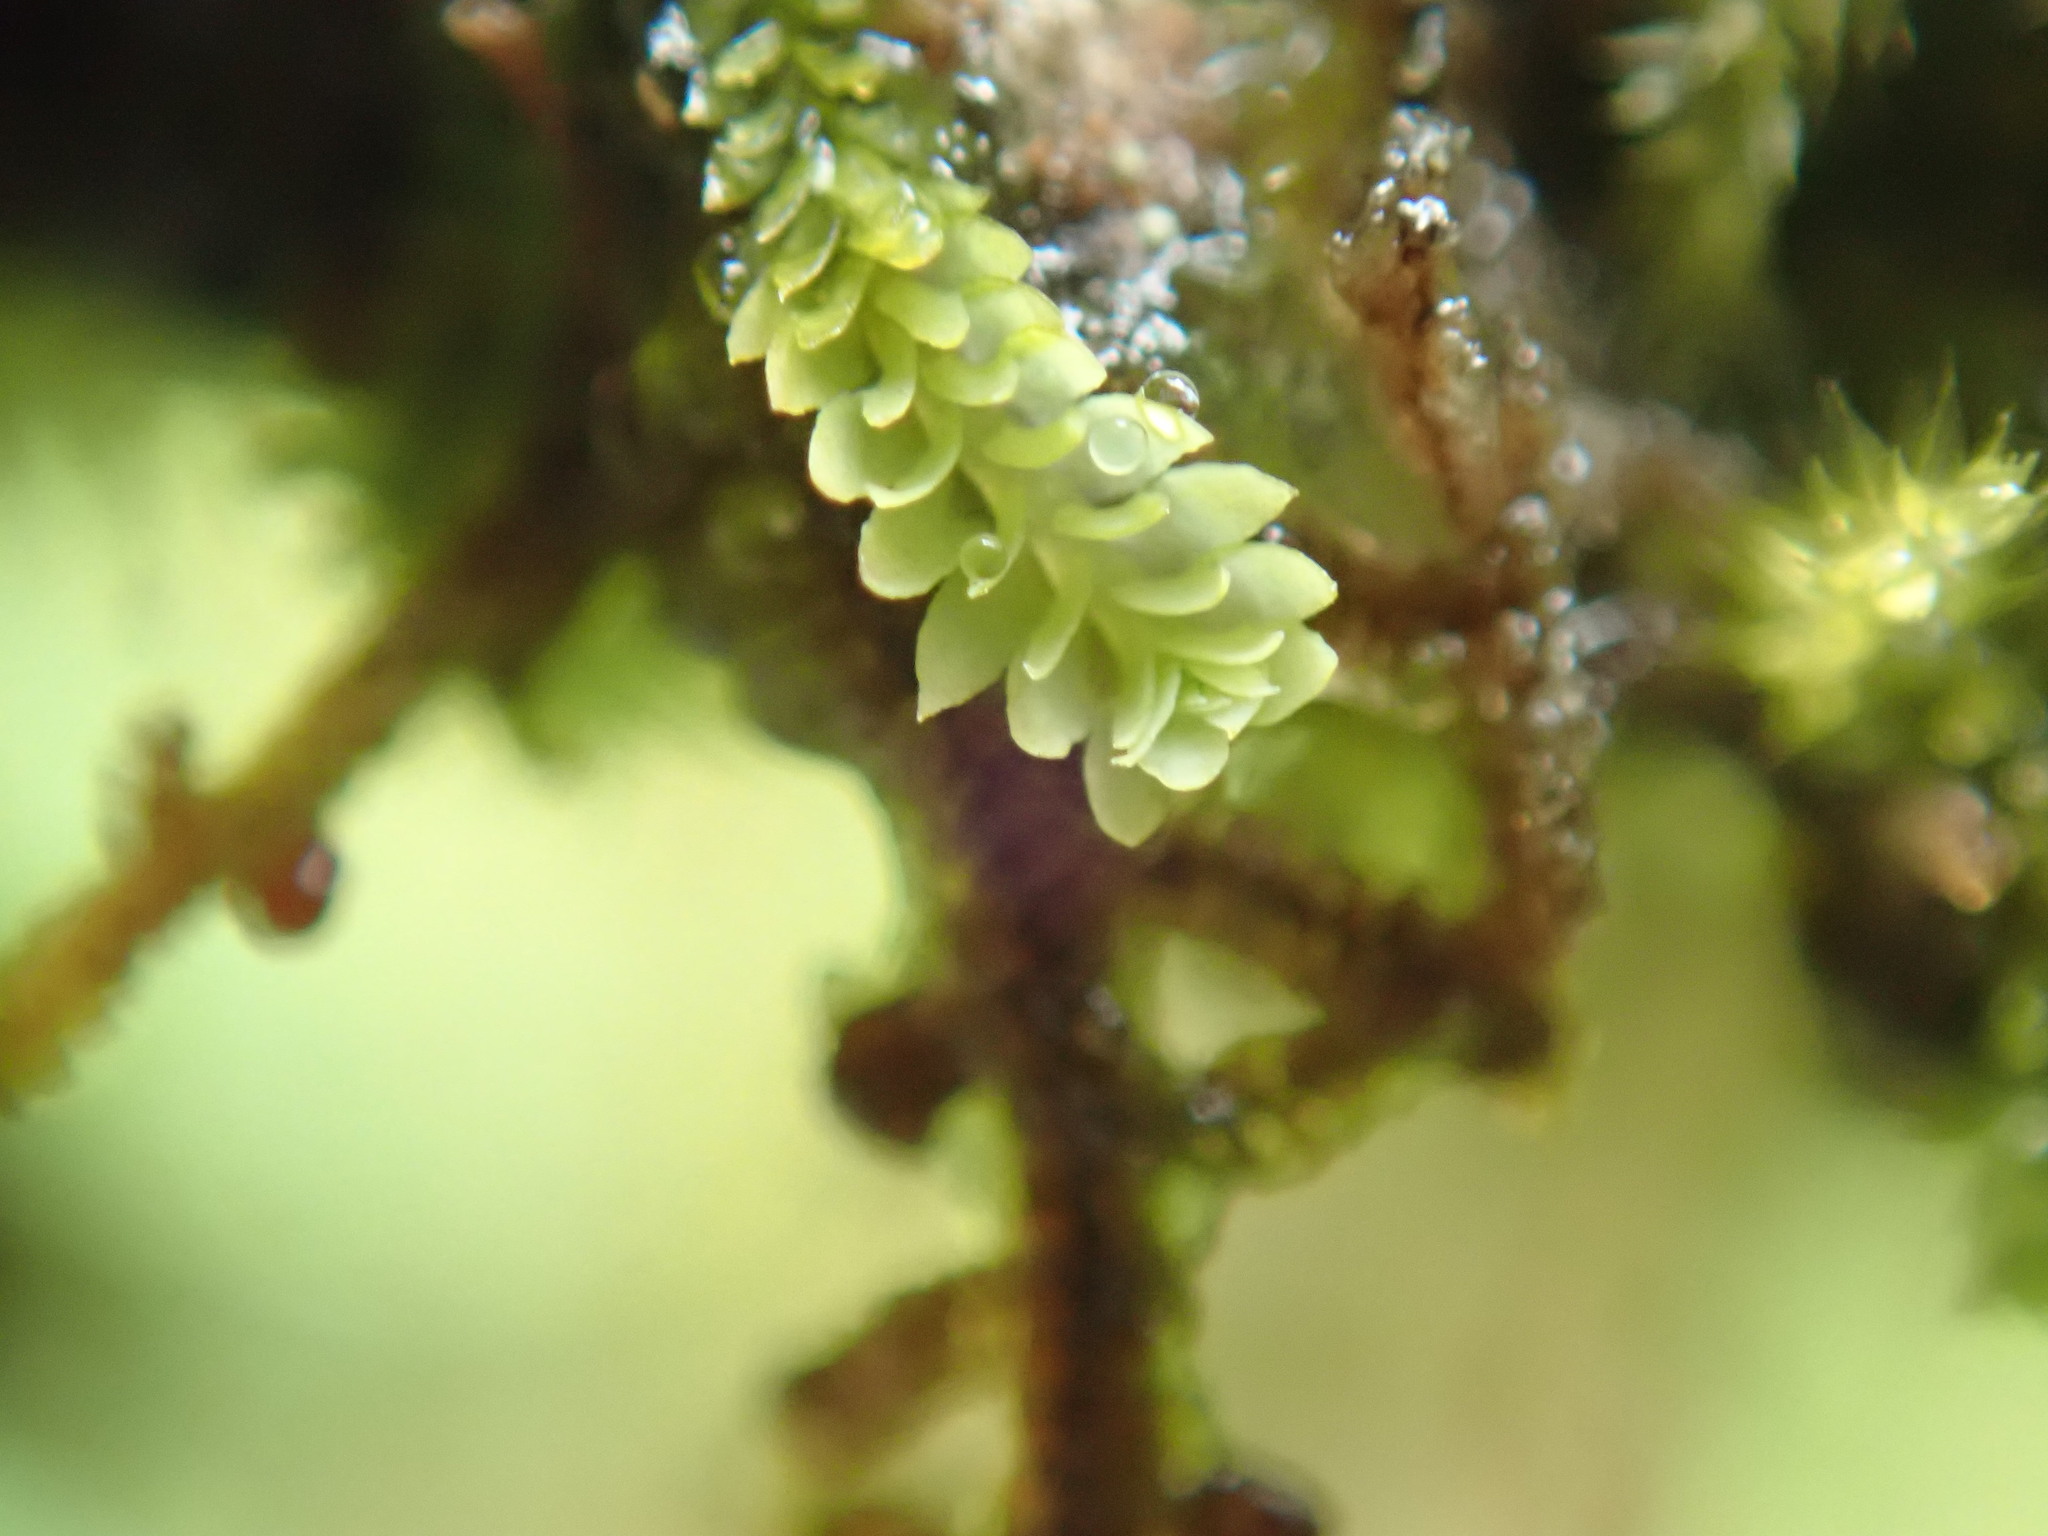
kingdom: Plantae
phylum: Marchantiophyta
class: Jungermanniopsida
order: Jungermanniales
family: Scapaniaceae
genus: Douinia
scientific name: Douinia ovata
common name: Waxy earwort
